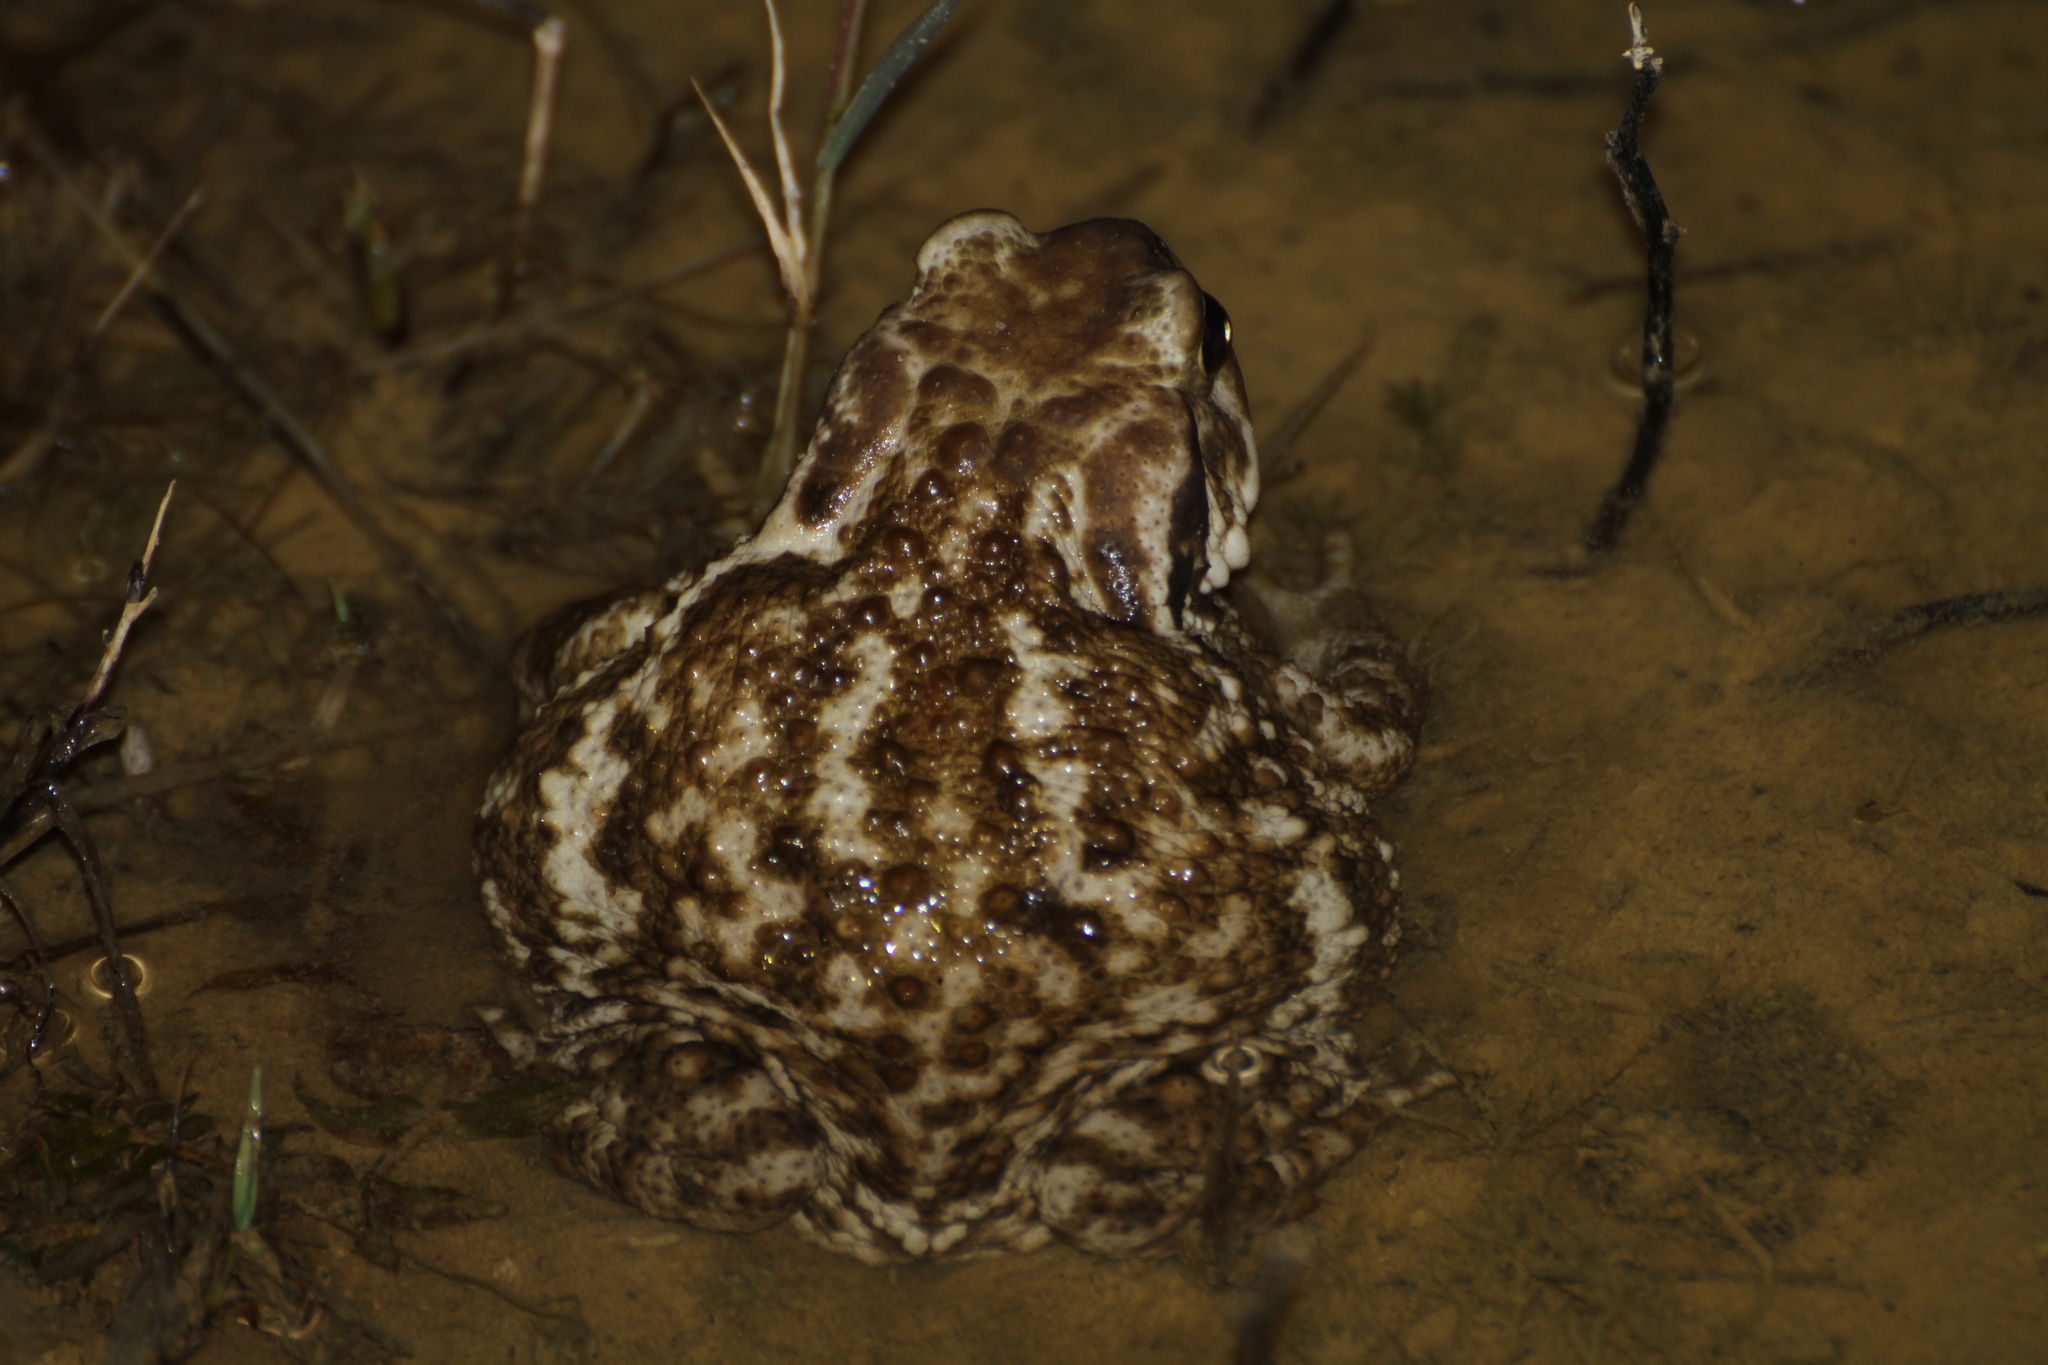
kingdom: Animalia
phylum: Chordata
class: Amphibia
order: Anura
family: Bufonidae
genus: Bufo
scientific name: Bufo spinosus
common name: Western common toad
